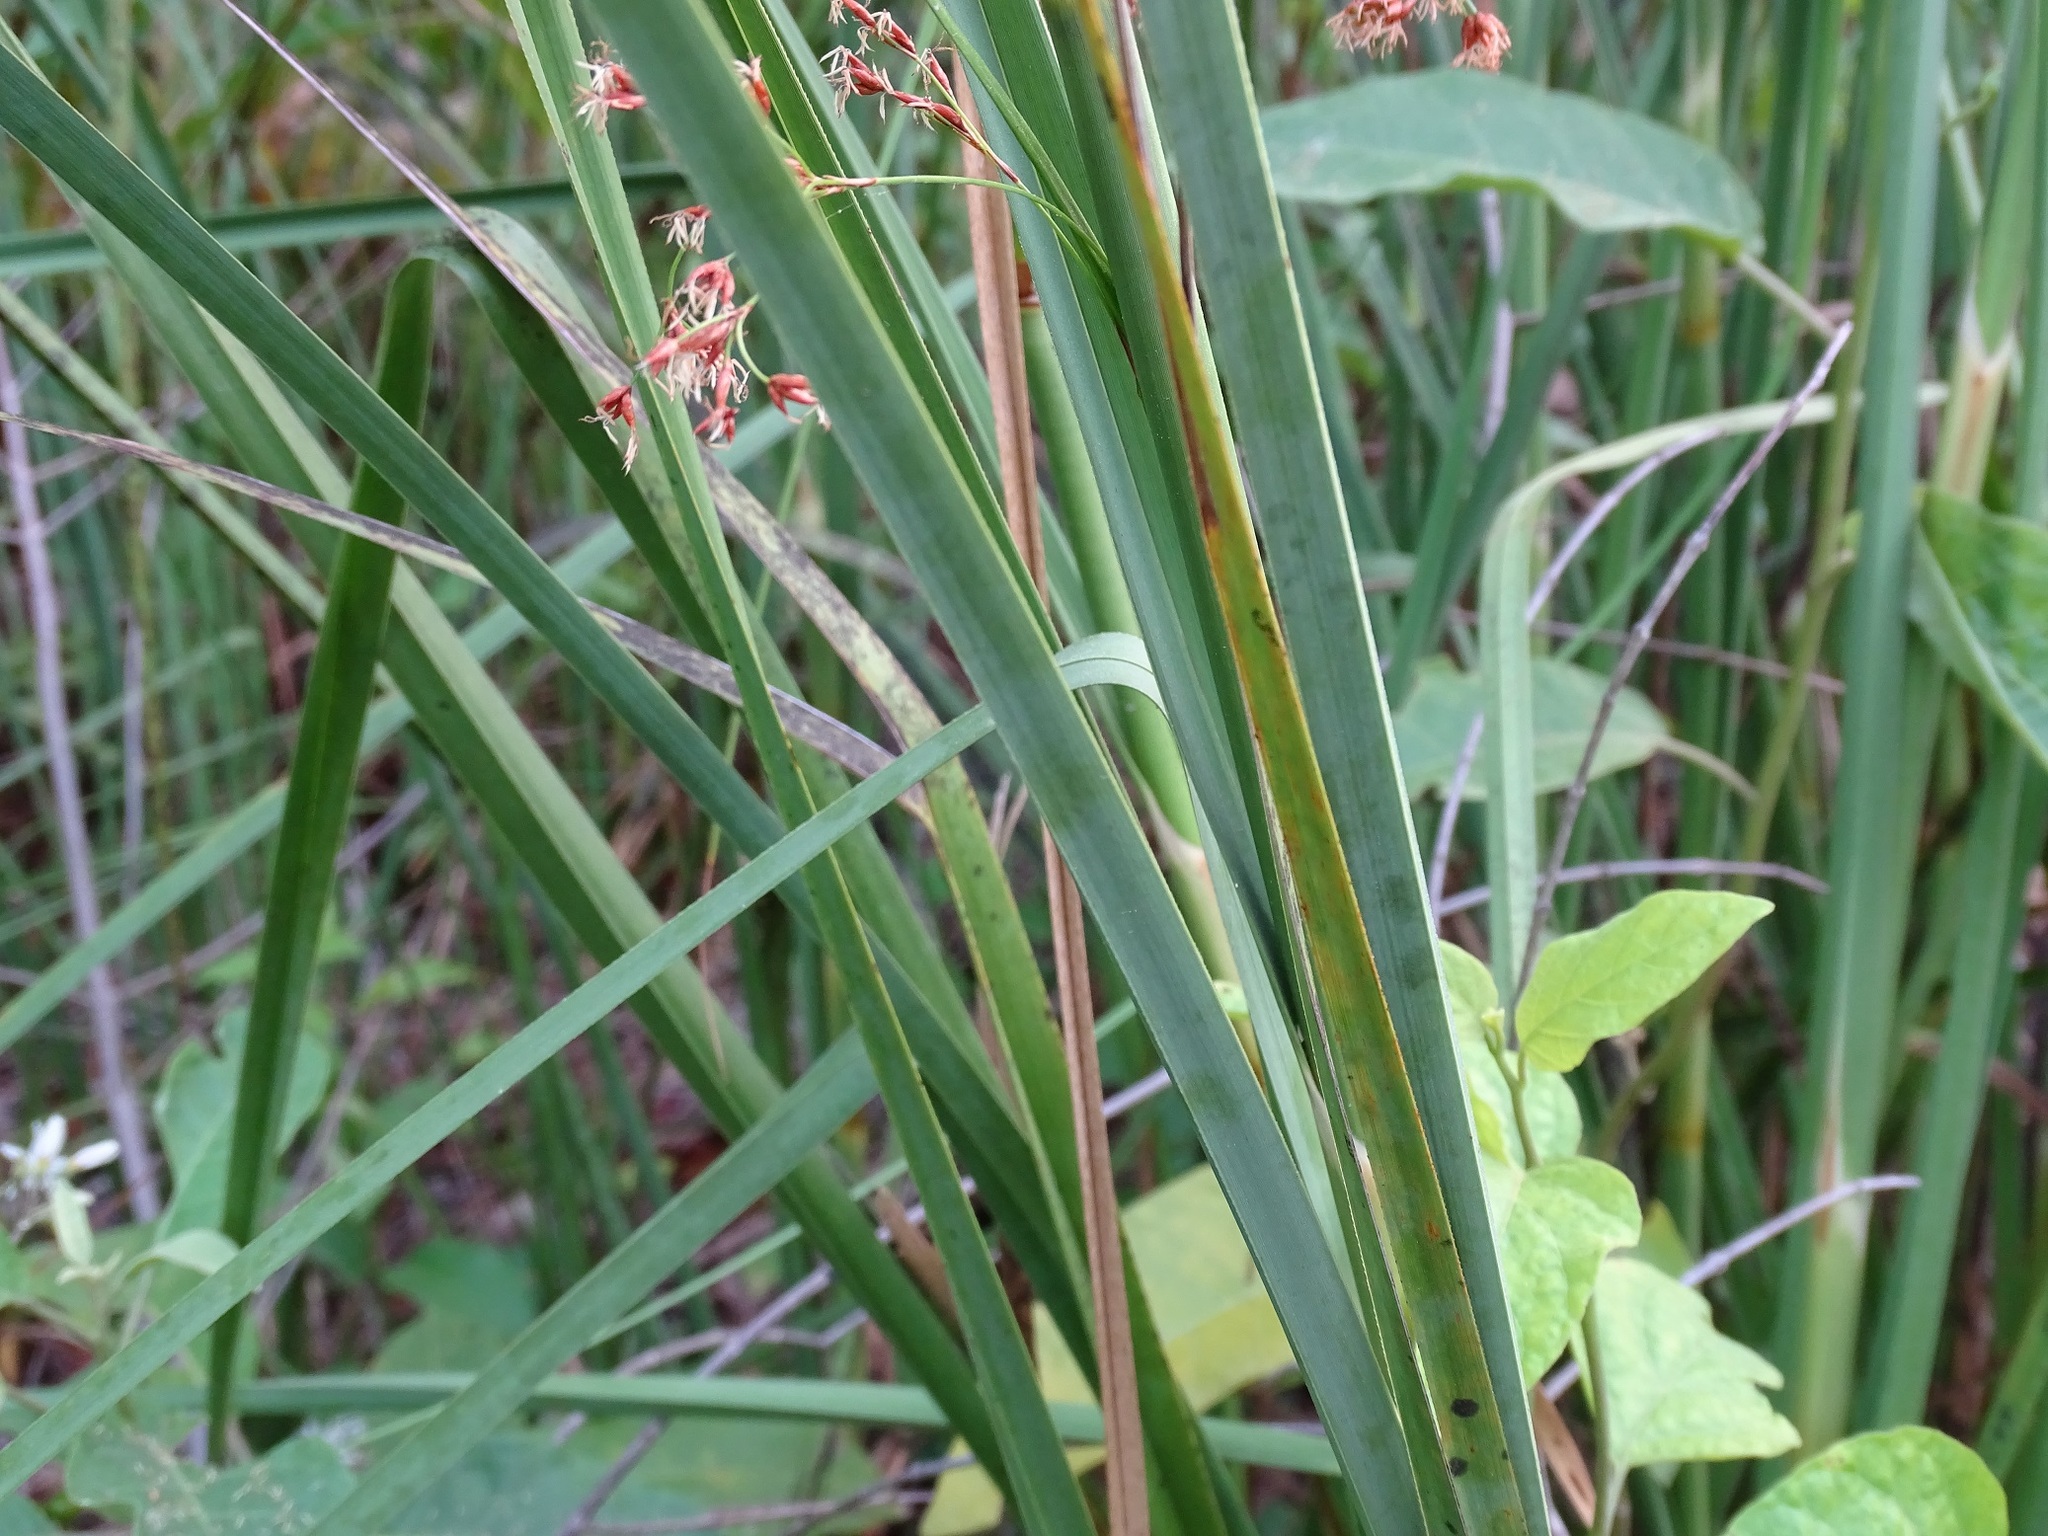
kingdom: Plantae
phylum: Tracheophyta
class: Liliopsida
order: Poales
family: Cyperaceae
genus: Cladium
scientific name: Cladium mariscus
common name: Great fen-sedge
